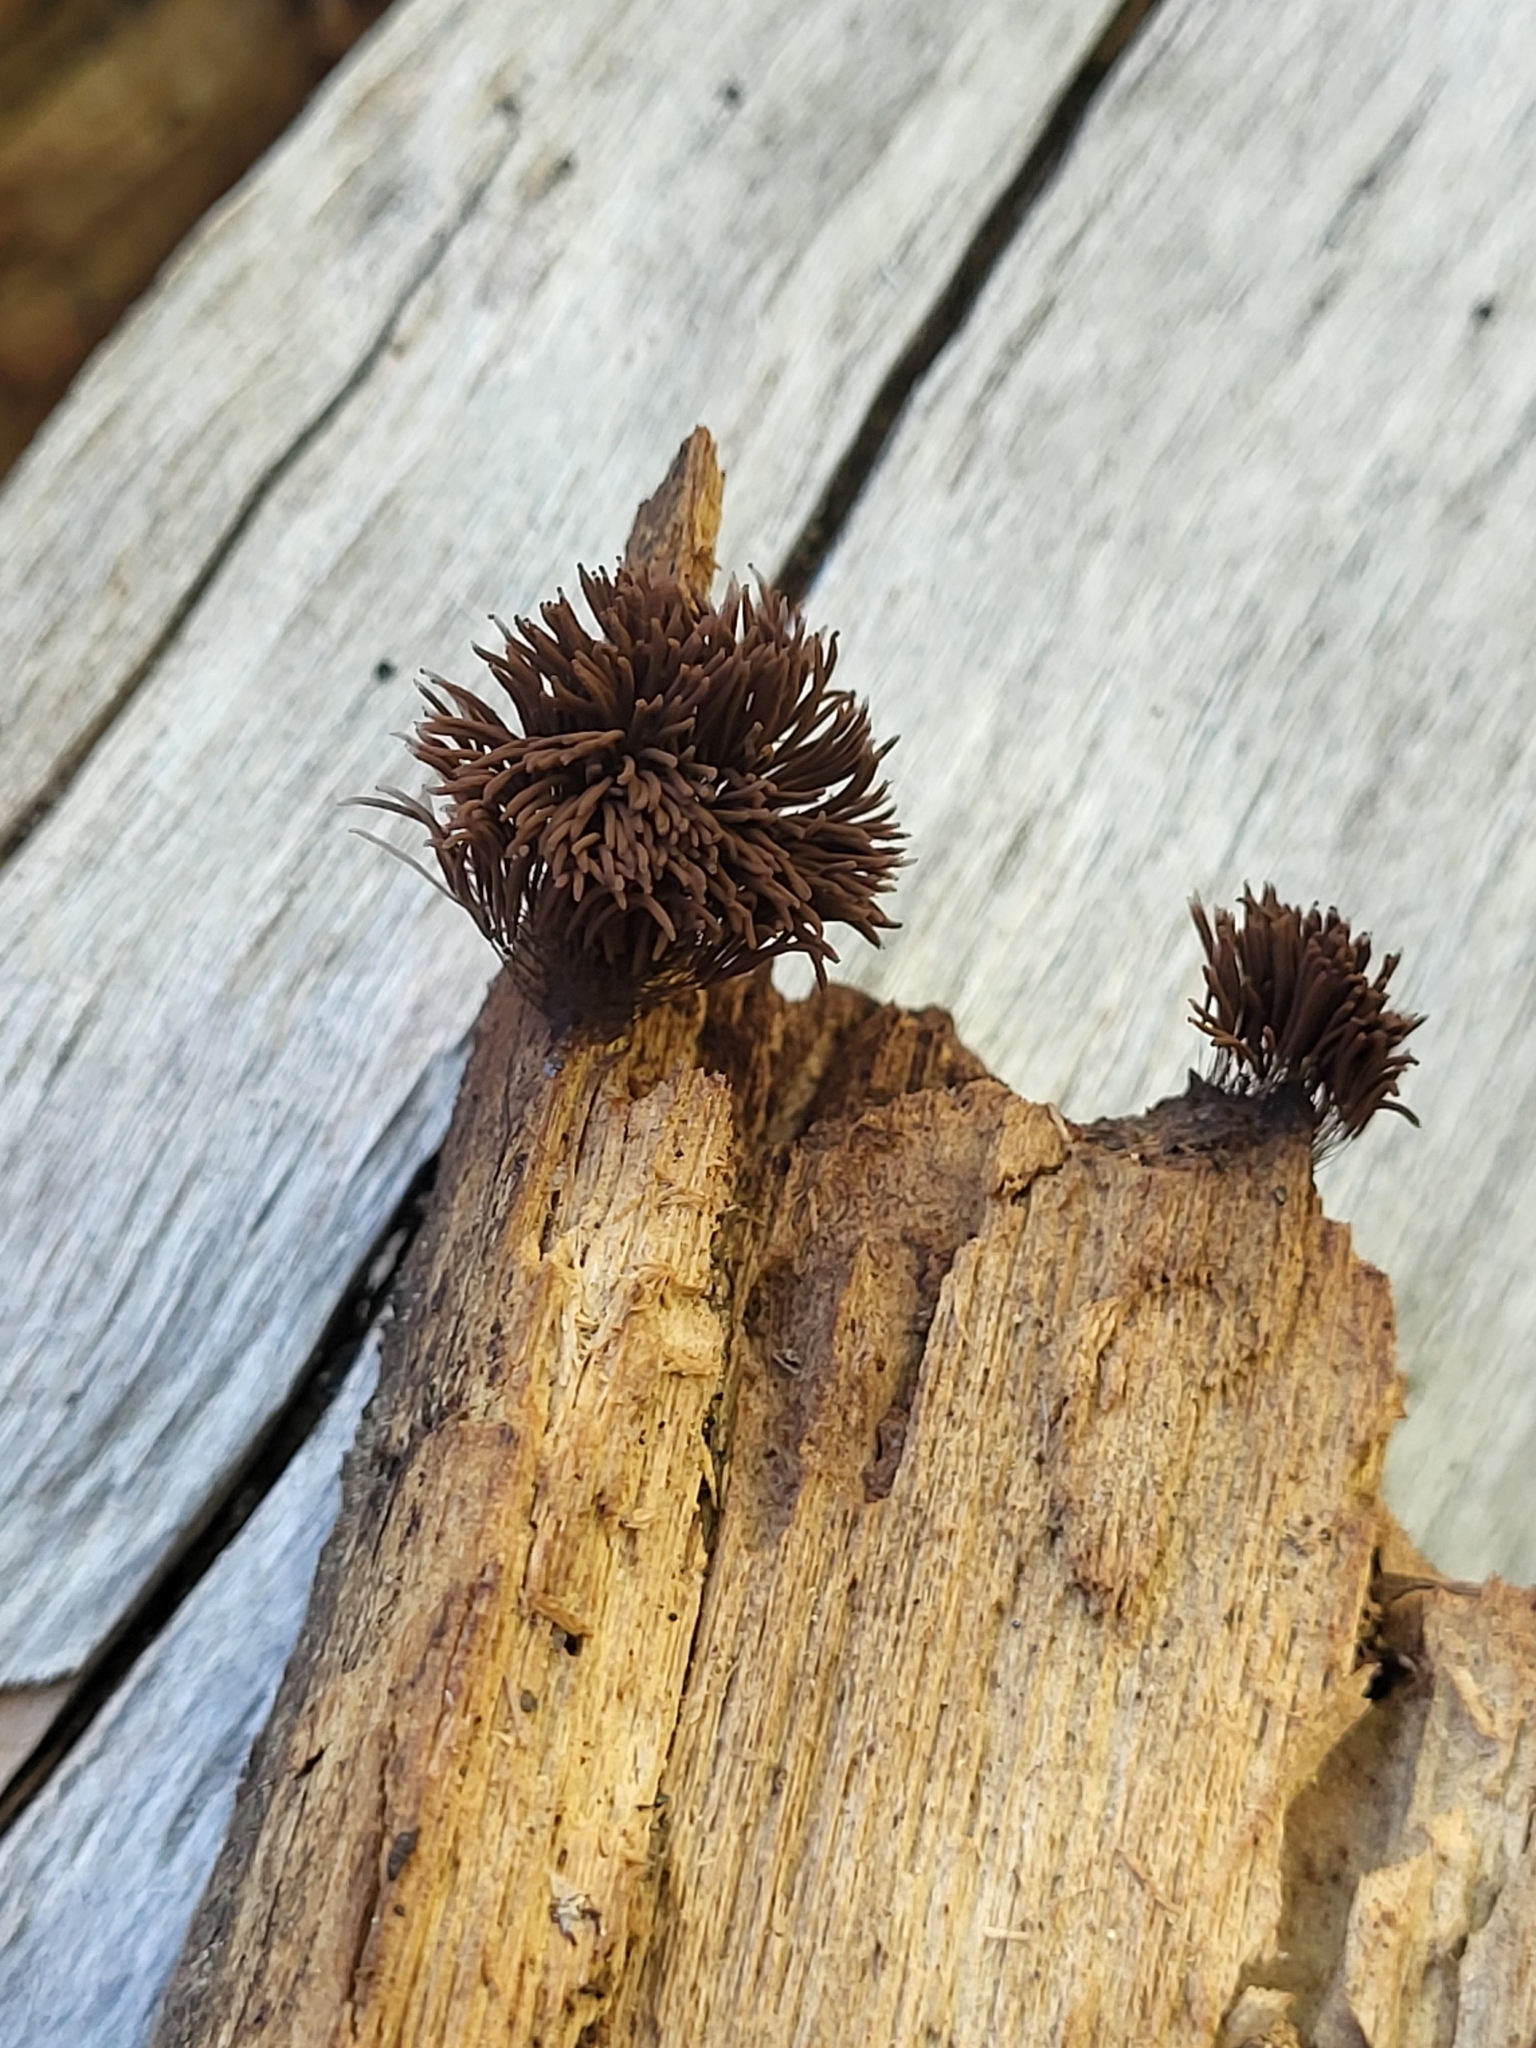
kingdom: Protozoa
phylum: Mycetozoa
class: Myxomycetes
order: Stemonitidales
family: Stemonitidaceae
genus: Stemonitis
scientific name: Stemonitis splendens
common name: Chocolate tube slime
